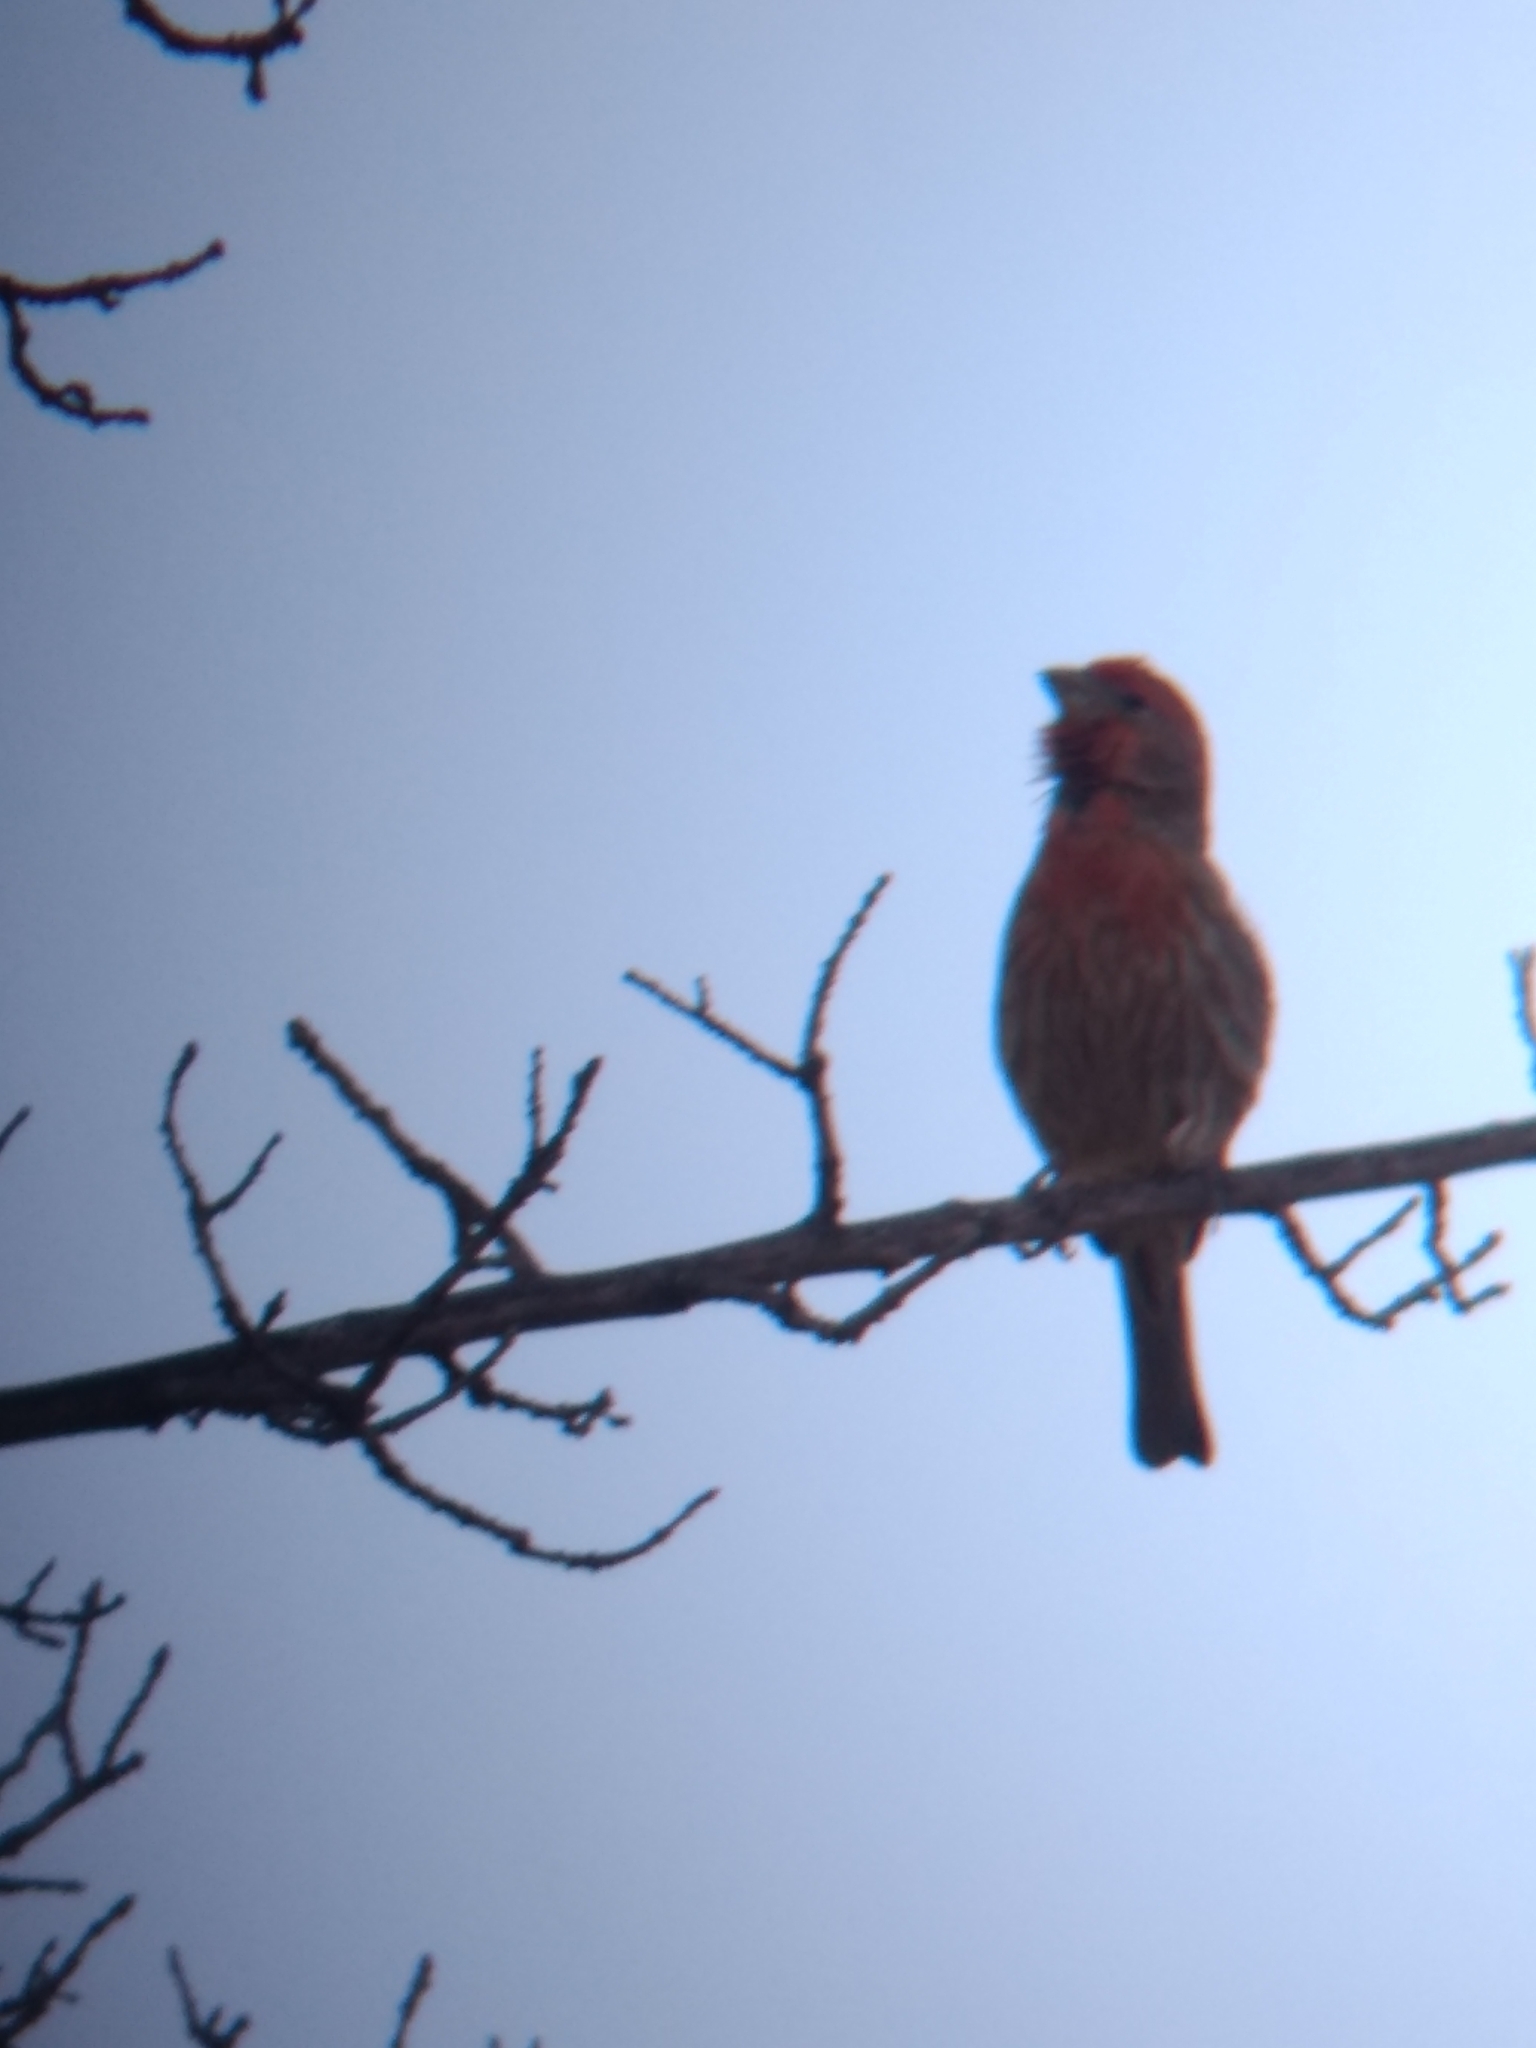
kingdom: Animalia
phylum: Chordata
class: Aves
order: Passeriformes
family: Fringillidae
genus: Haemorhous
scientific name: Haemorhous mexicanus
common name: House finch
